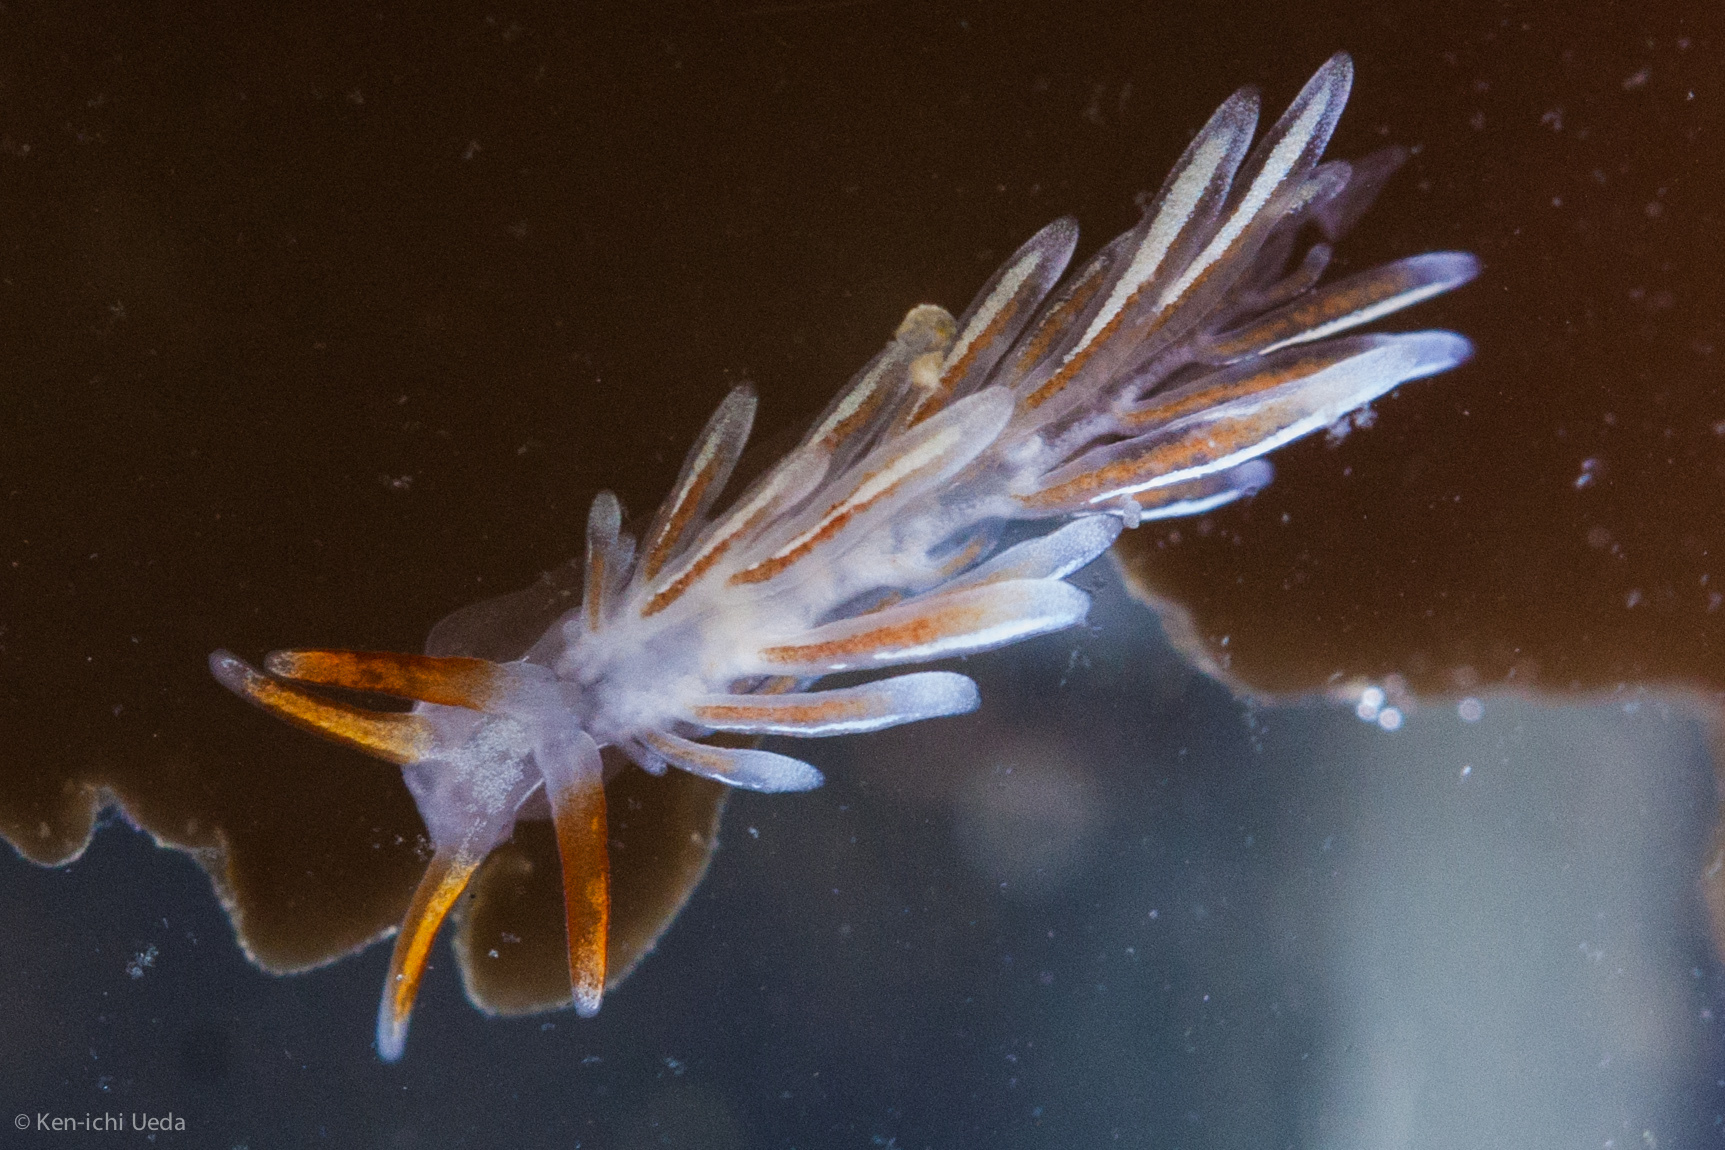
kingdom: Animalia
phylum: Mollusca
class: Gastropoda
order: Nudibranchia
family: Trinchesiidae
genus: Catriona
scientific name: Catriona spadix
